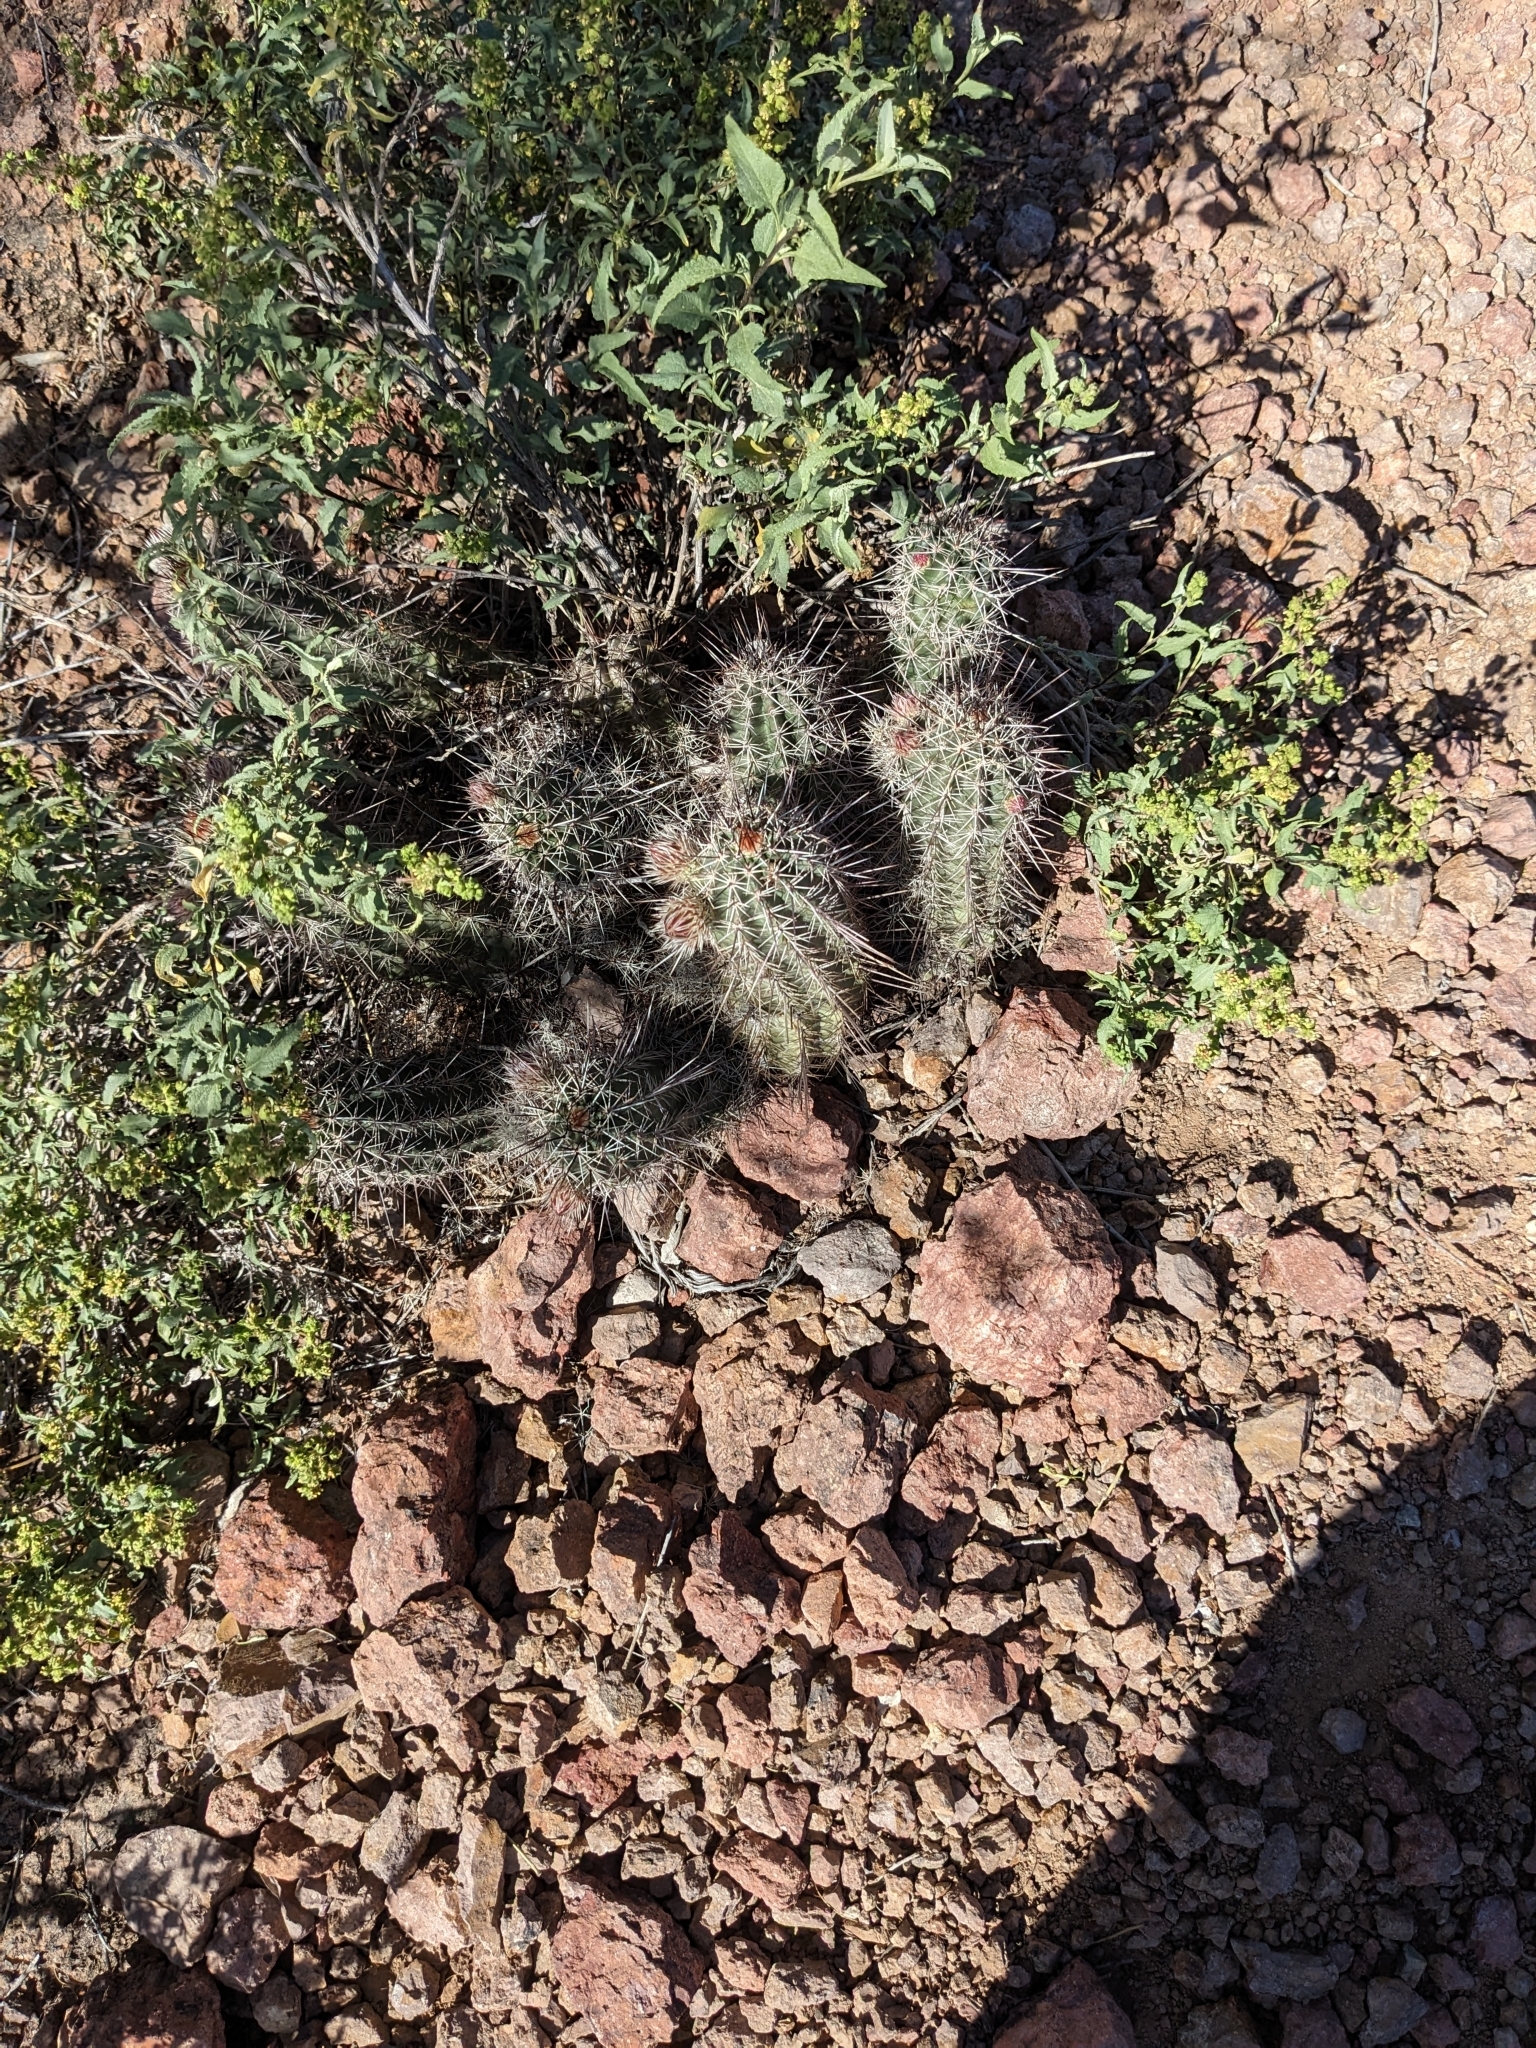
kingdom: Plantae
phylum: Tracheophyta
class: Magnoliopsida
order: Caryophyllales
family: Cactaceae
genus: Echinocereus
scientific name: Echinocereus fasciculatus
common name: Bundle hedgehog
